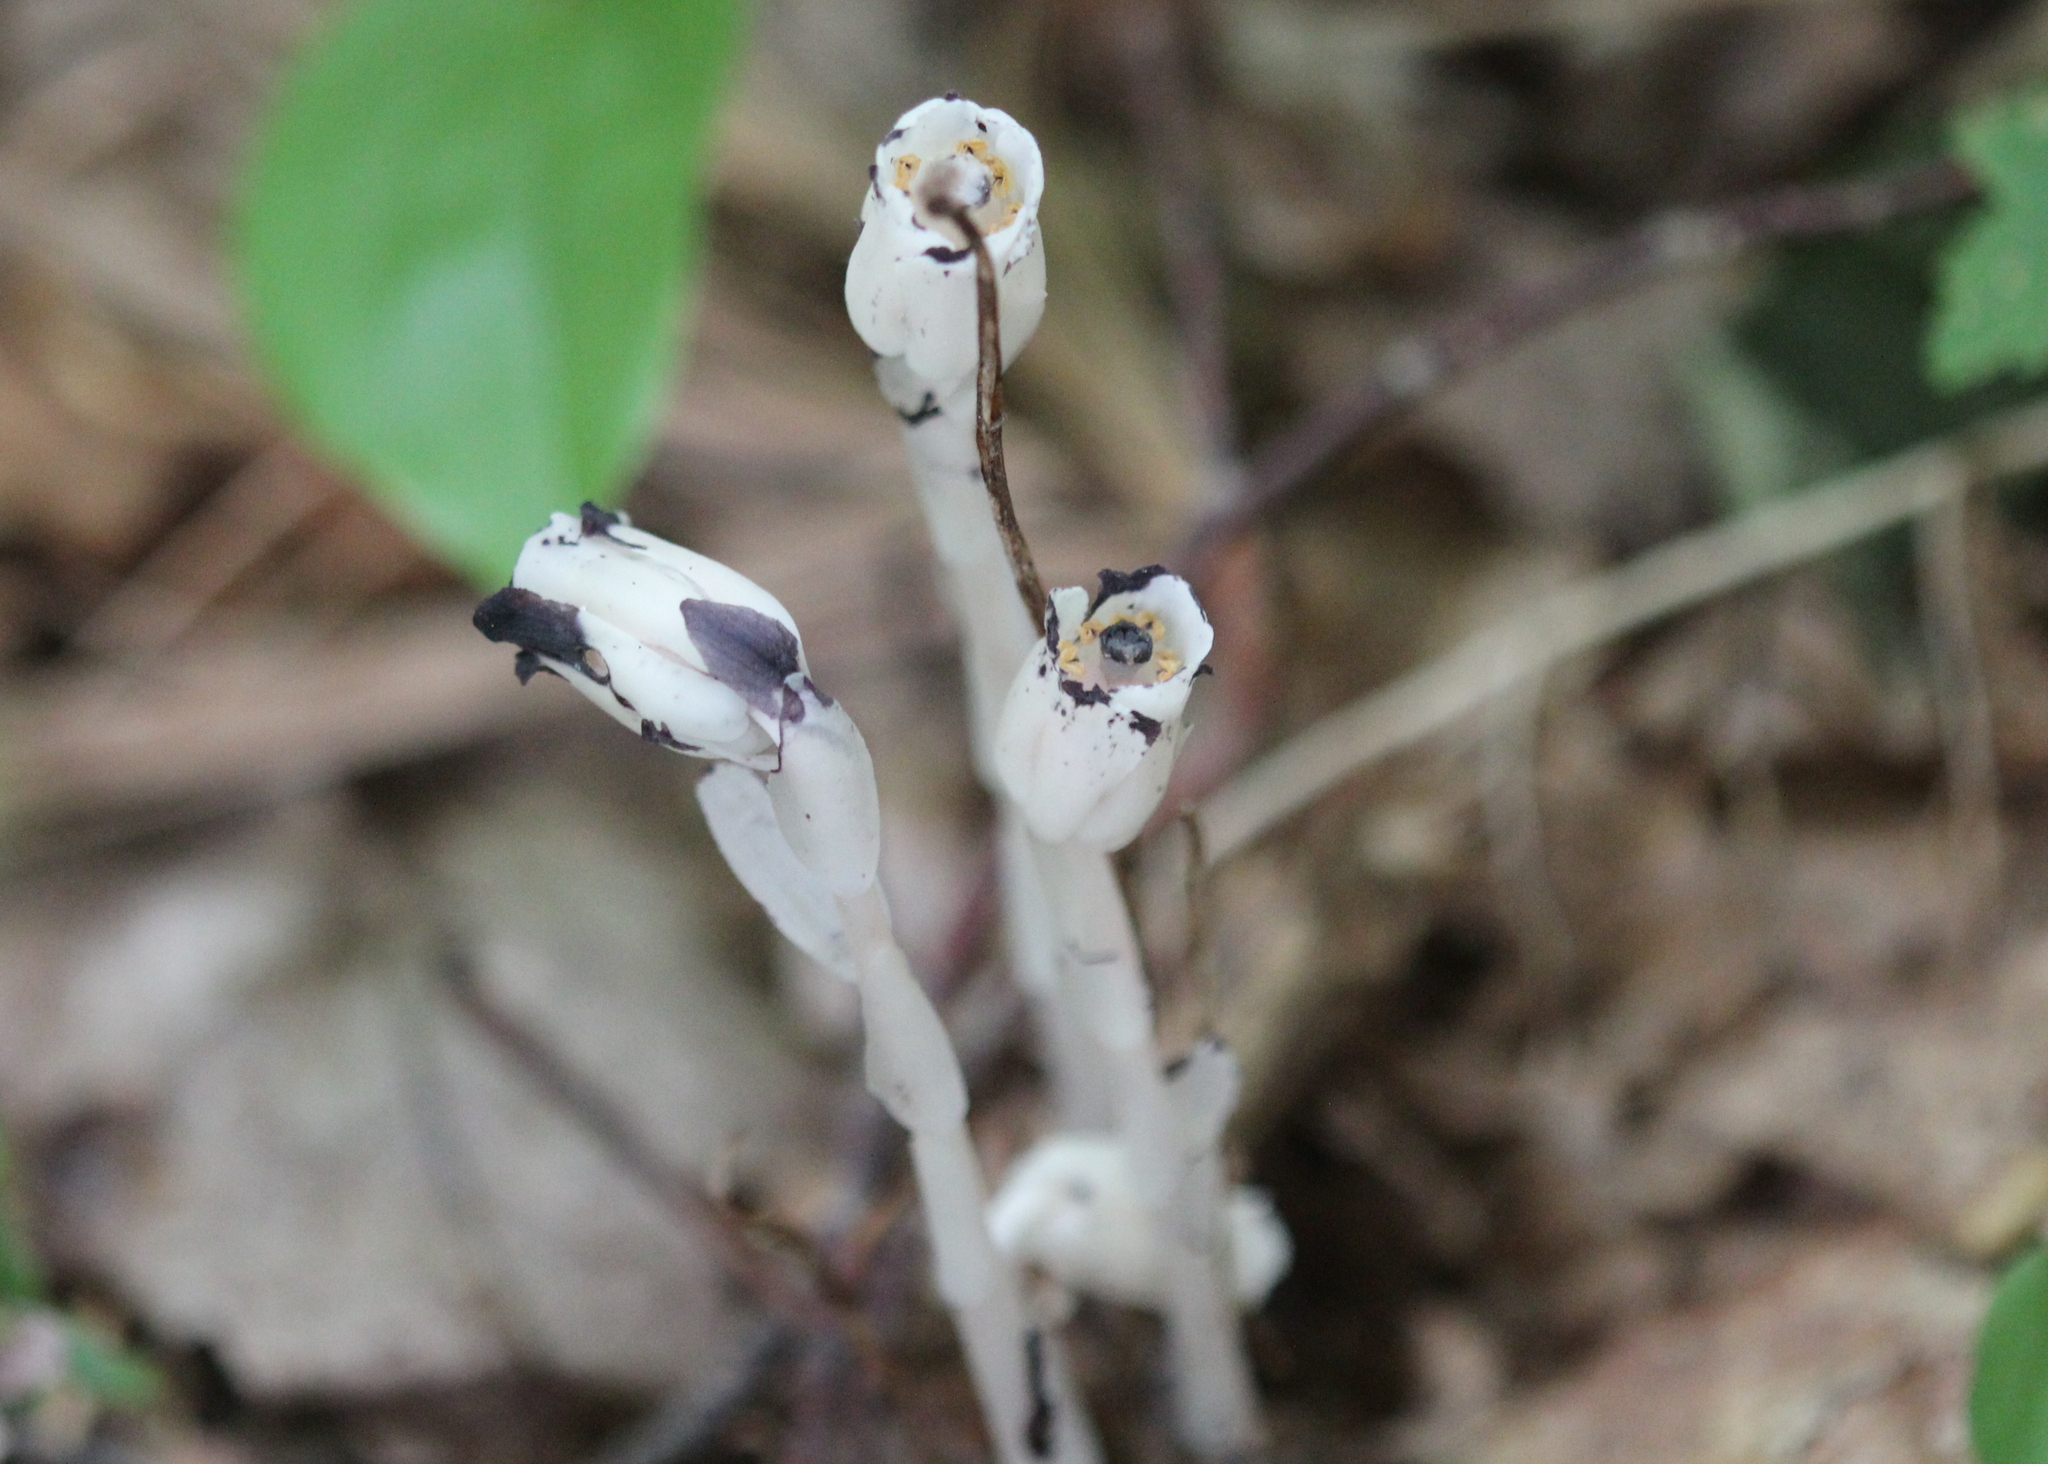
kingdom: Plantae
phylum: Tracheophyta
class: Magnoliopsida
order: Ericales
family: Ericaceae
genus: Monotropa
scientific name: Monotropa uniflora
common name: Convulsion root
